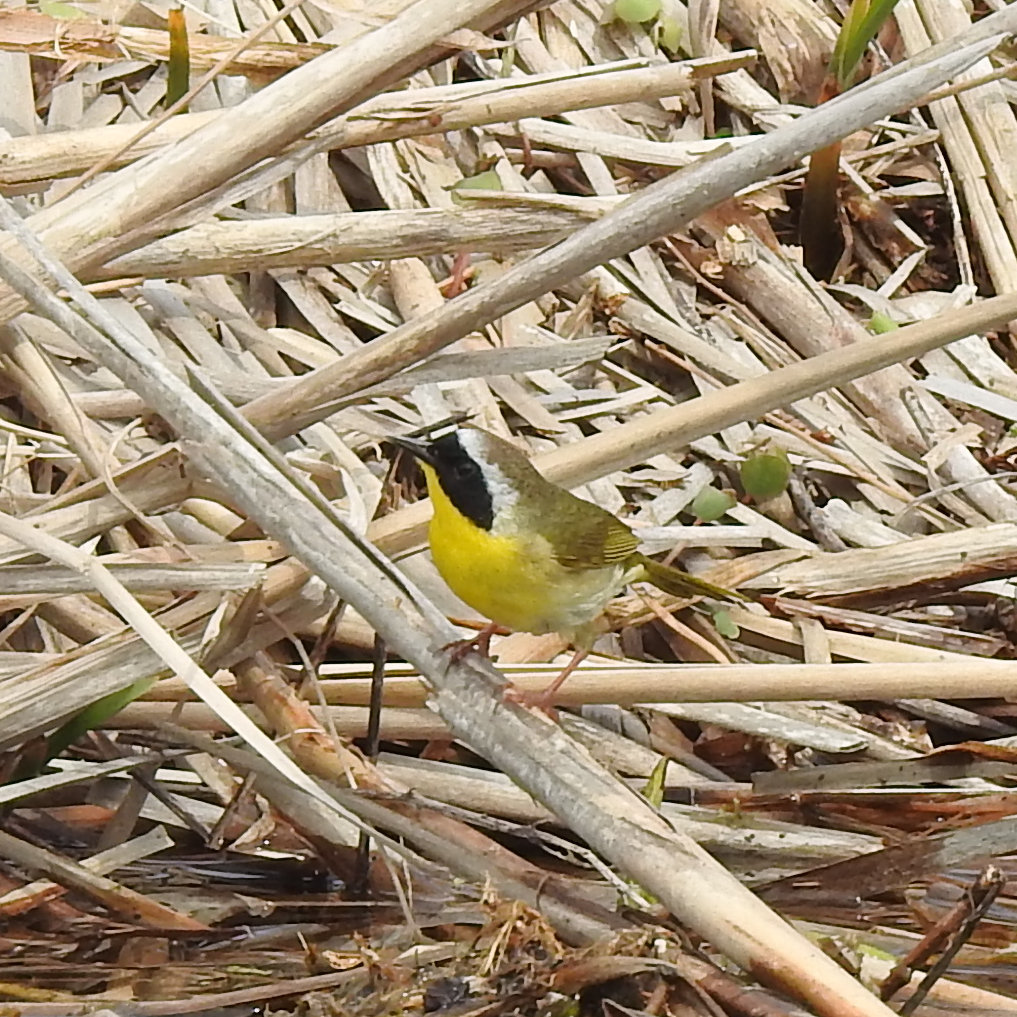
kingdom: Animalia
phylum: Chordata
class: Aves
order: Passeriformes
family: Parulidae
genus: Geothlypis
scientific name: Geothlypis trichas
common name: Common yellowthroat
